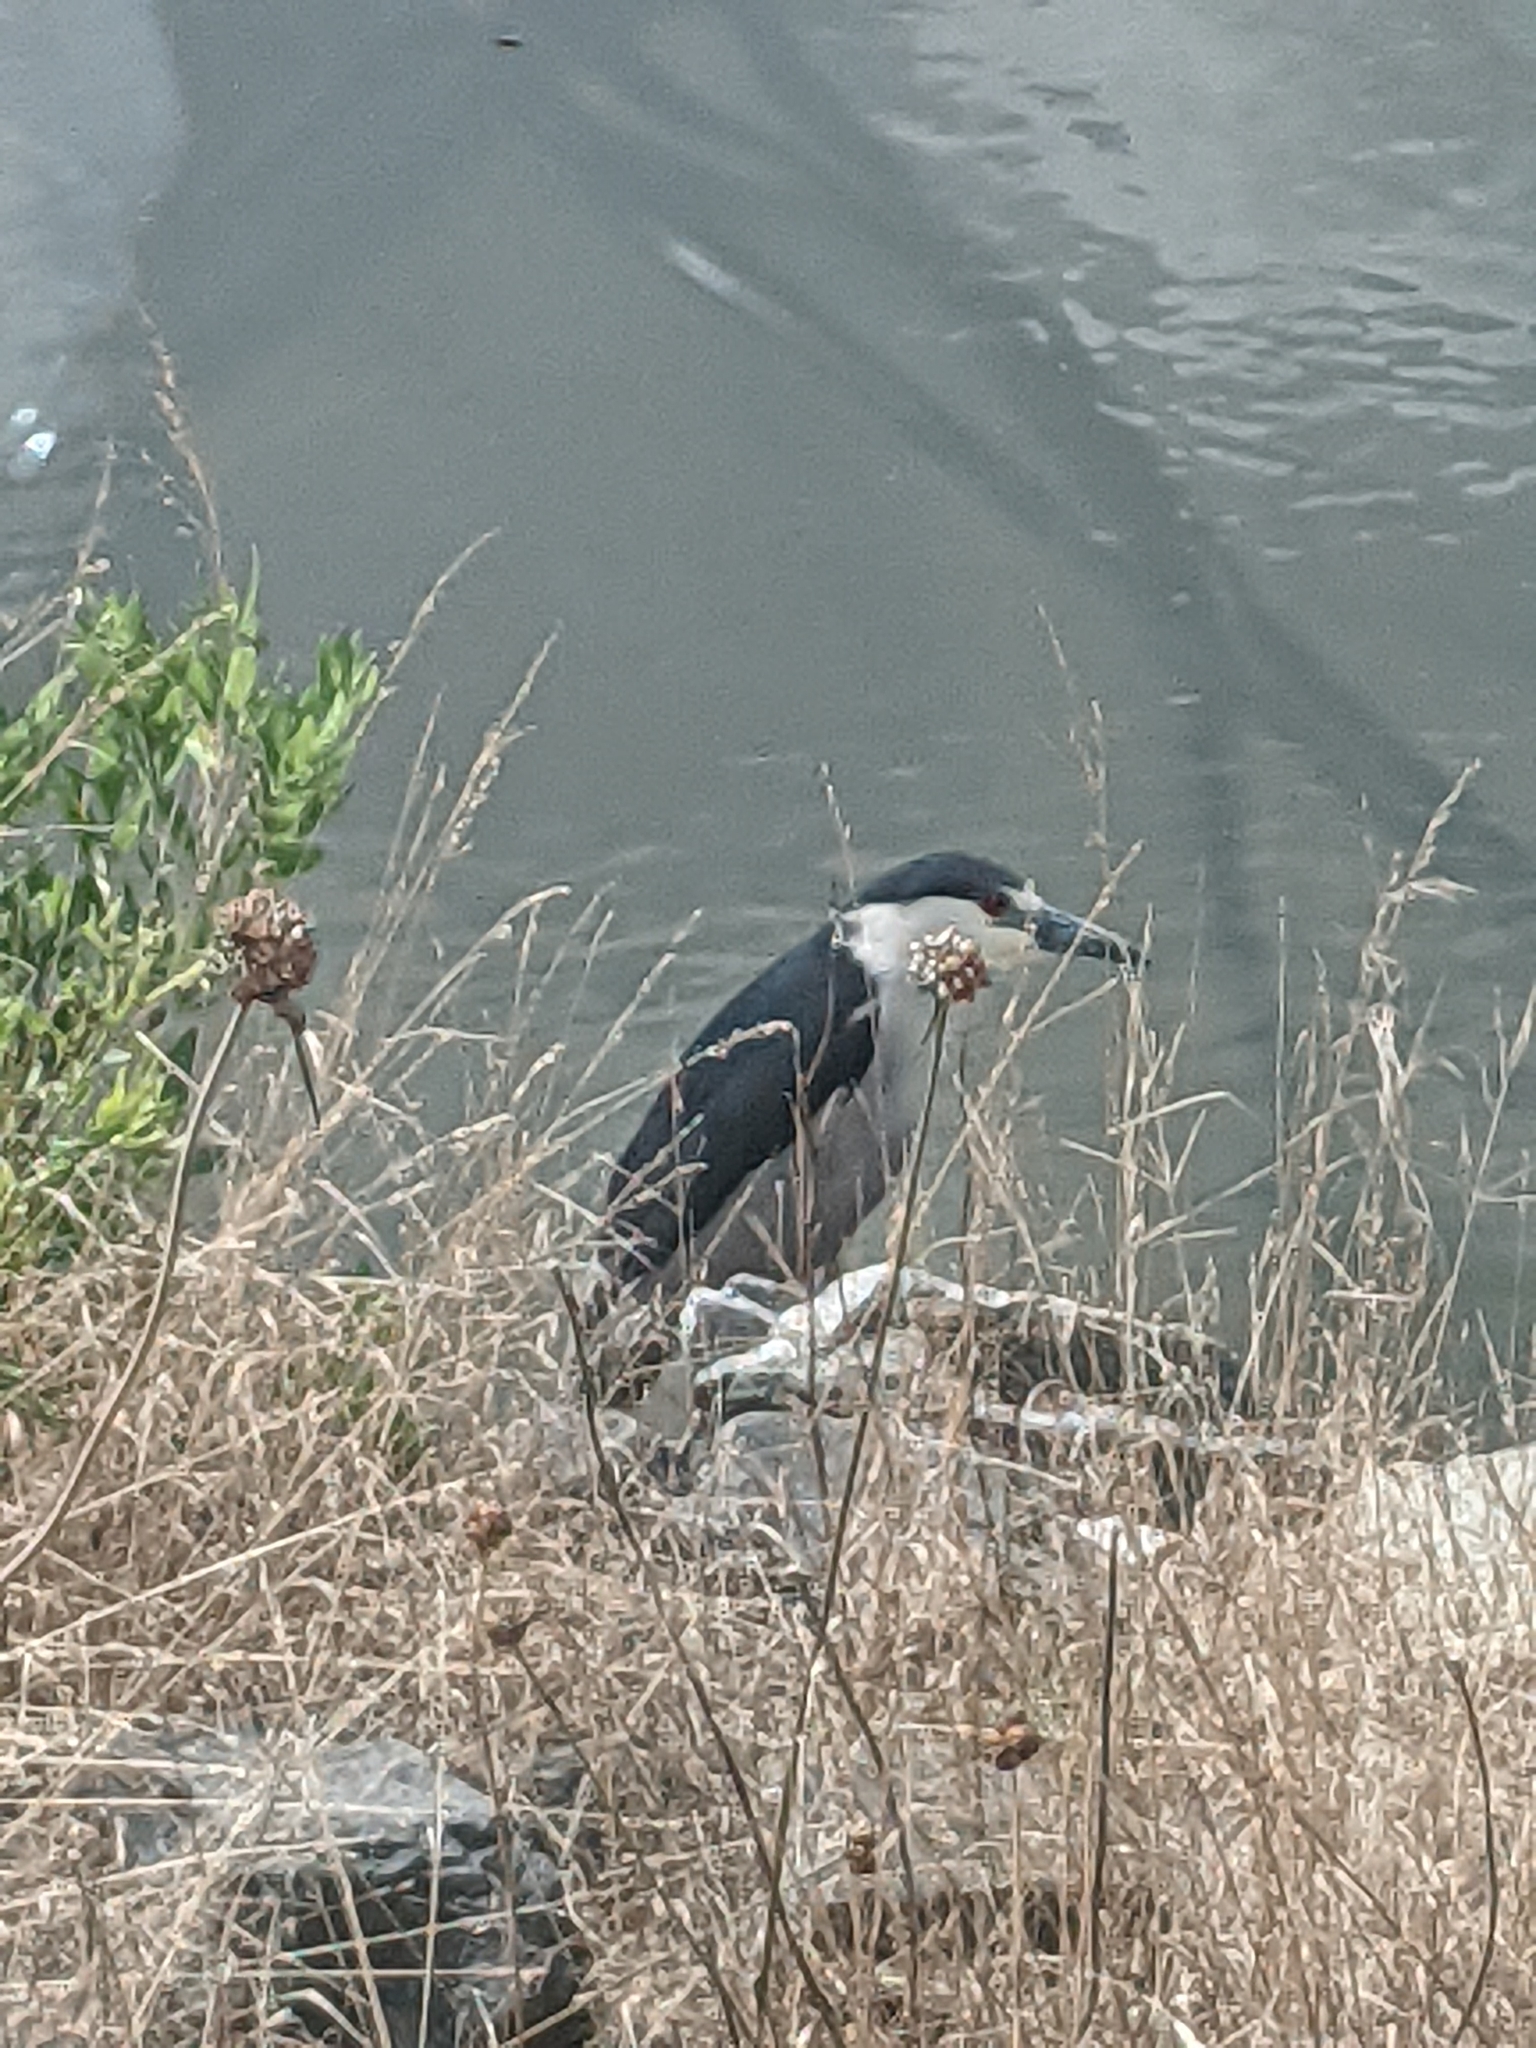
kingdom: Animalia
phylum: Chordata
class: Aves
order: Pelecaniformes
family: Ardeidae
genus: Nycticorax
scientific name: Nycticorax nycticorax
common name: Black-crowned night heron
